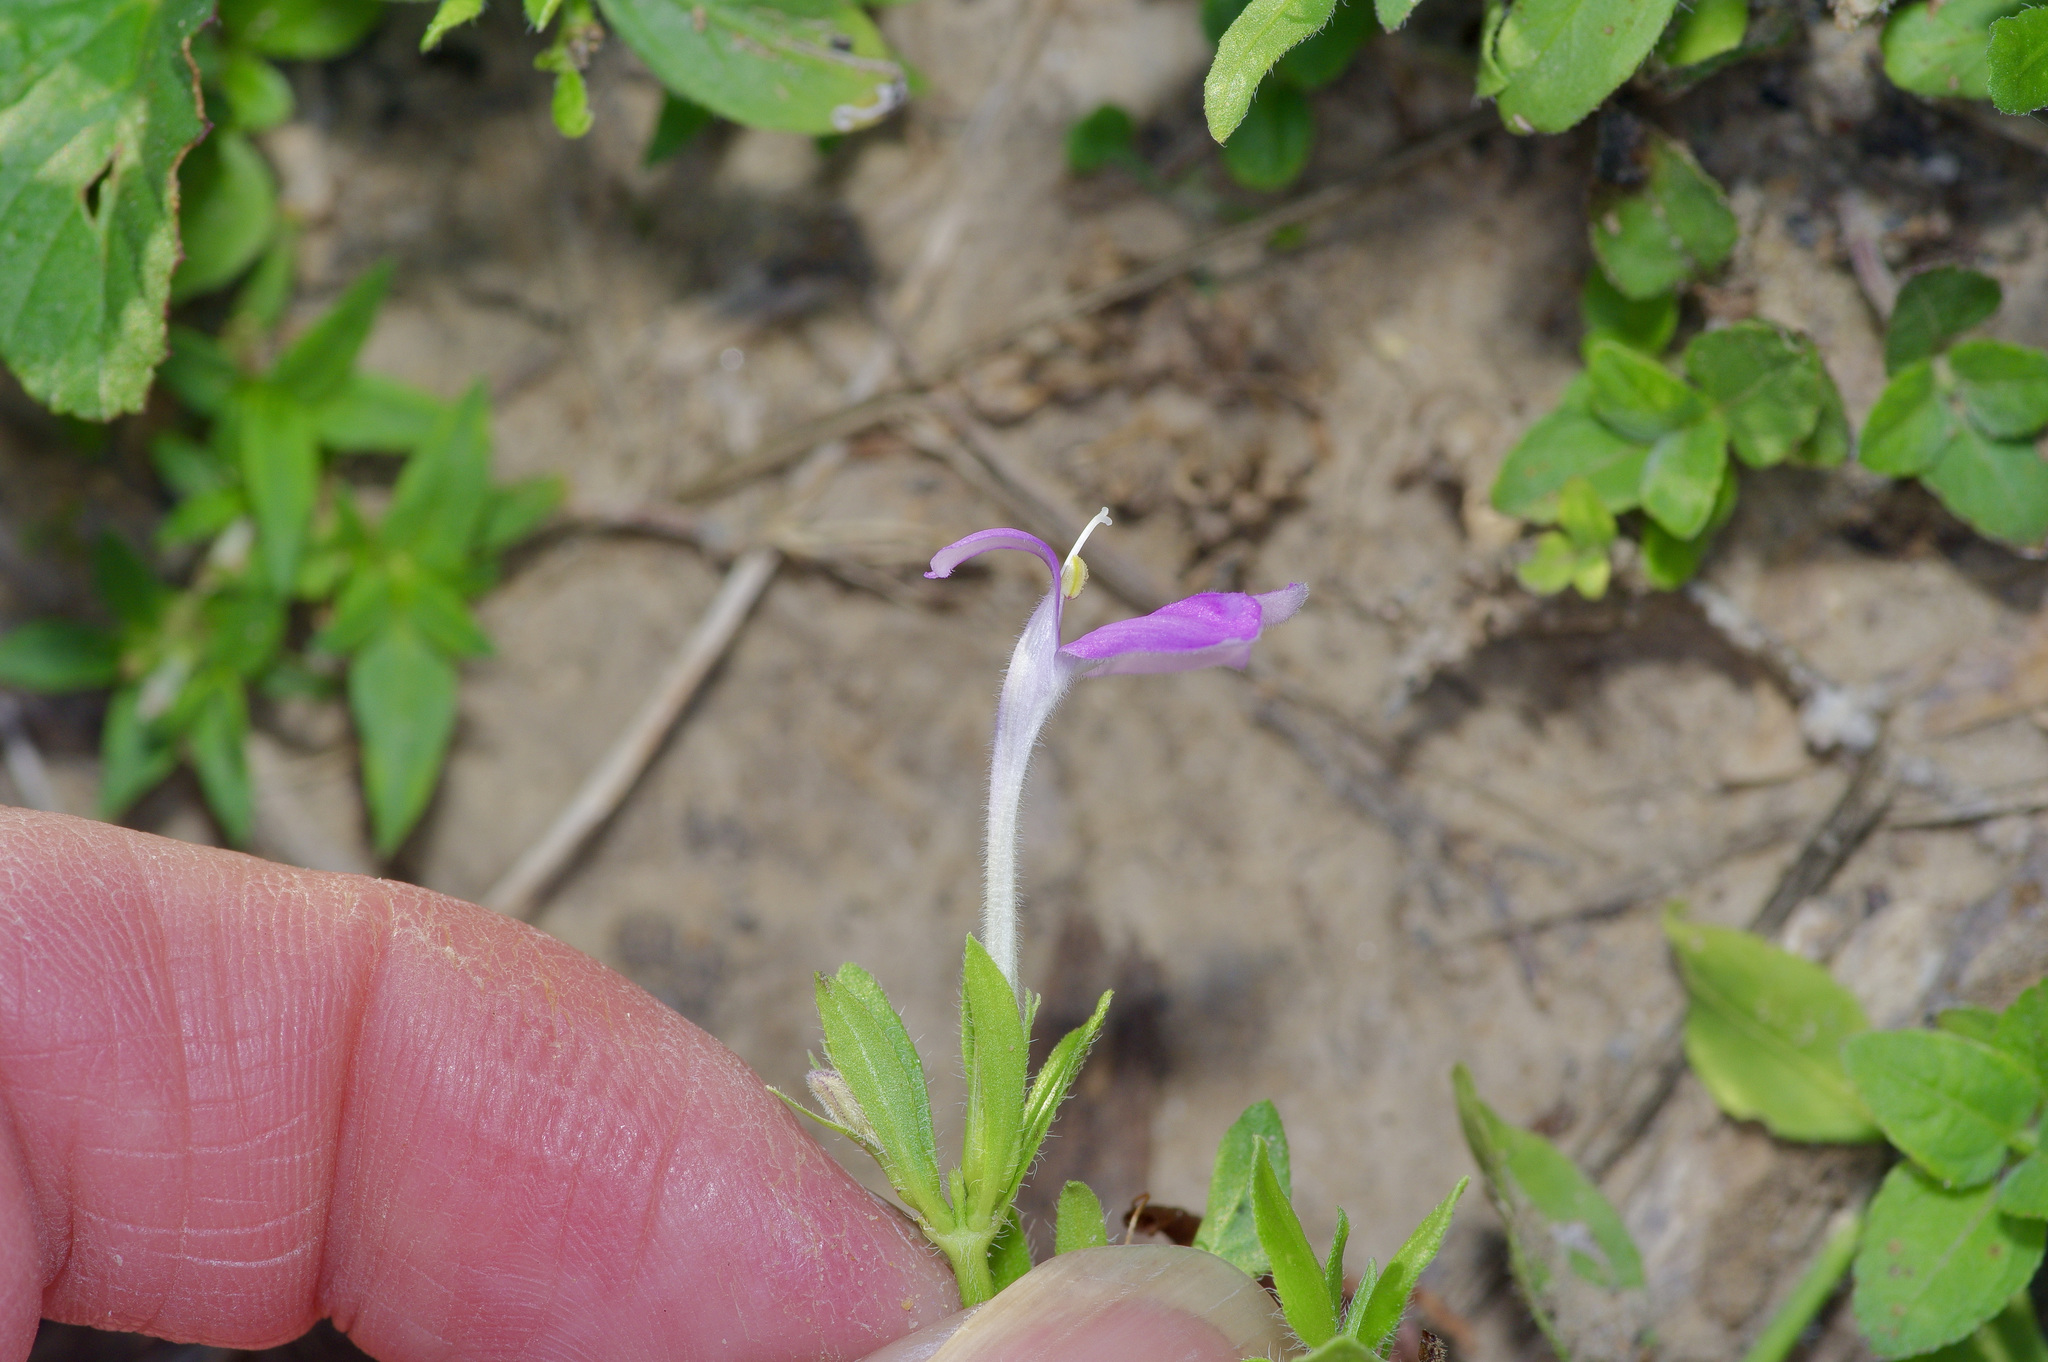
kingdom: Plantae
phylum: Tracheophyta
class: Magnoliopsida
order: Lamiales
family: Acanthaceae
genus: Justicia
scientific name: Justicia pilosella
